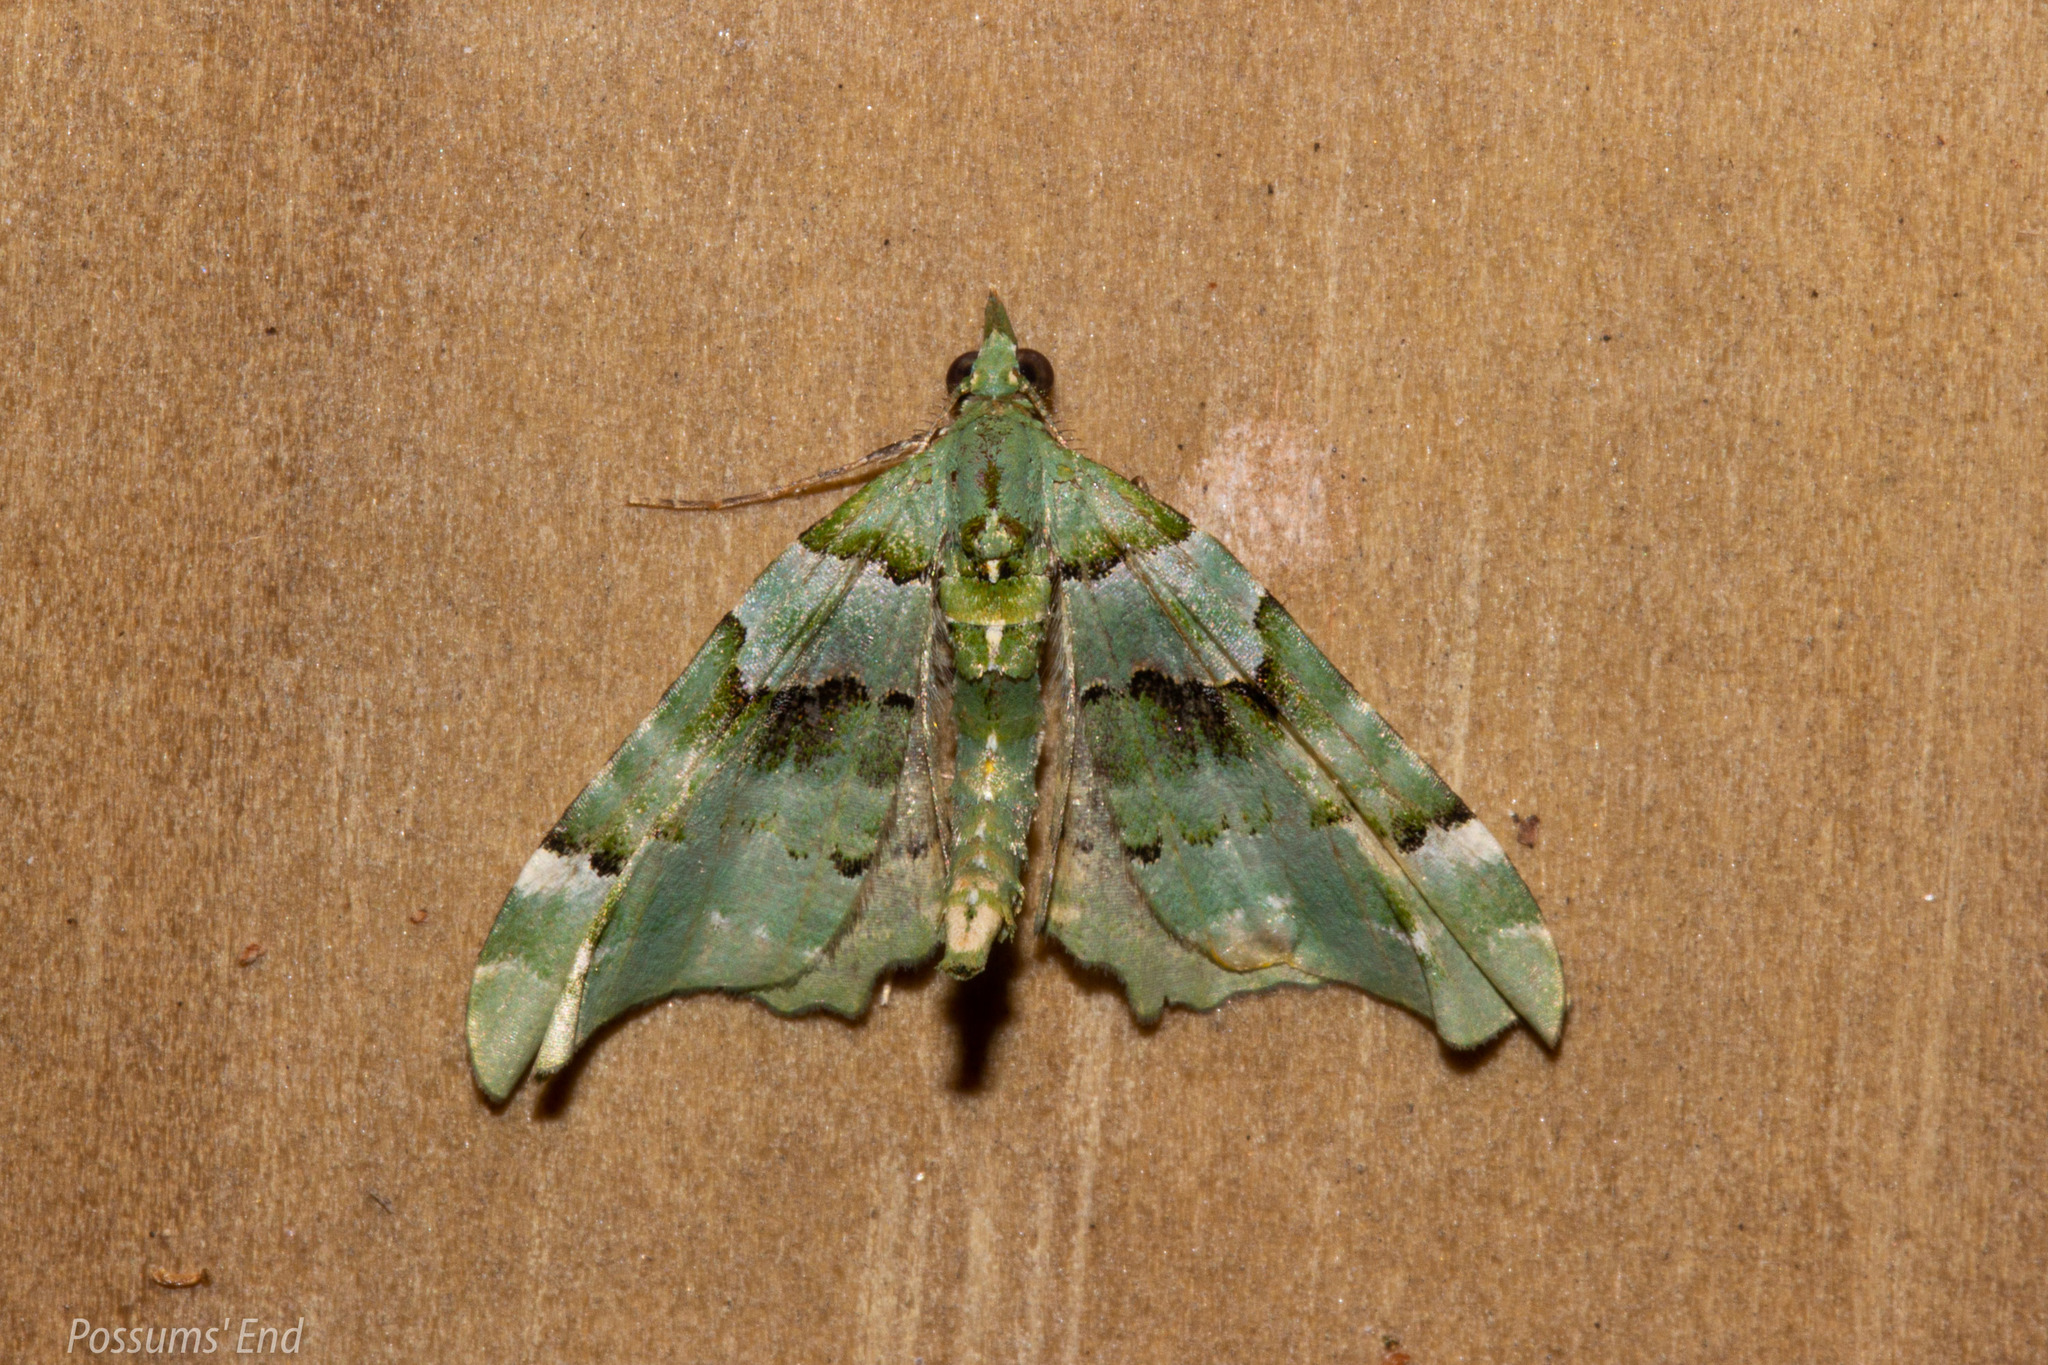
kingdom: Animalia
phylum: Arthropoda
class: Insecta
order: Lepidoptera
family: Geometridae
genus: Elvia
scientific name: Elvia glaucata
